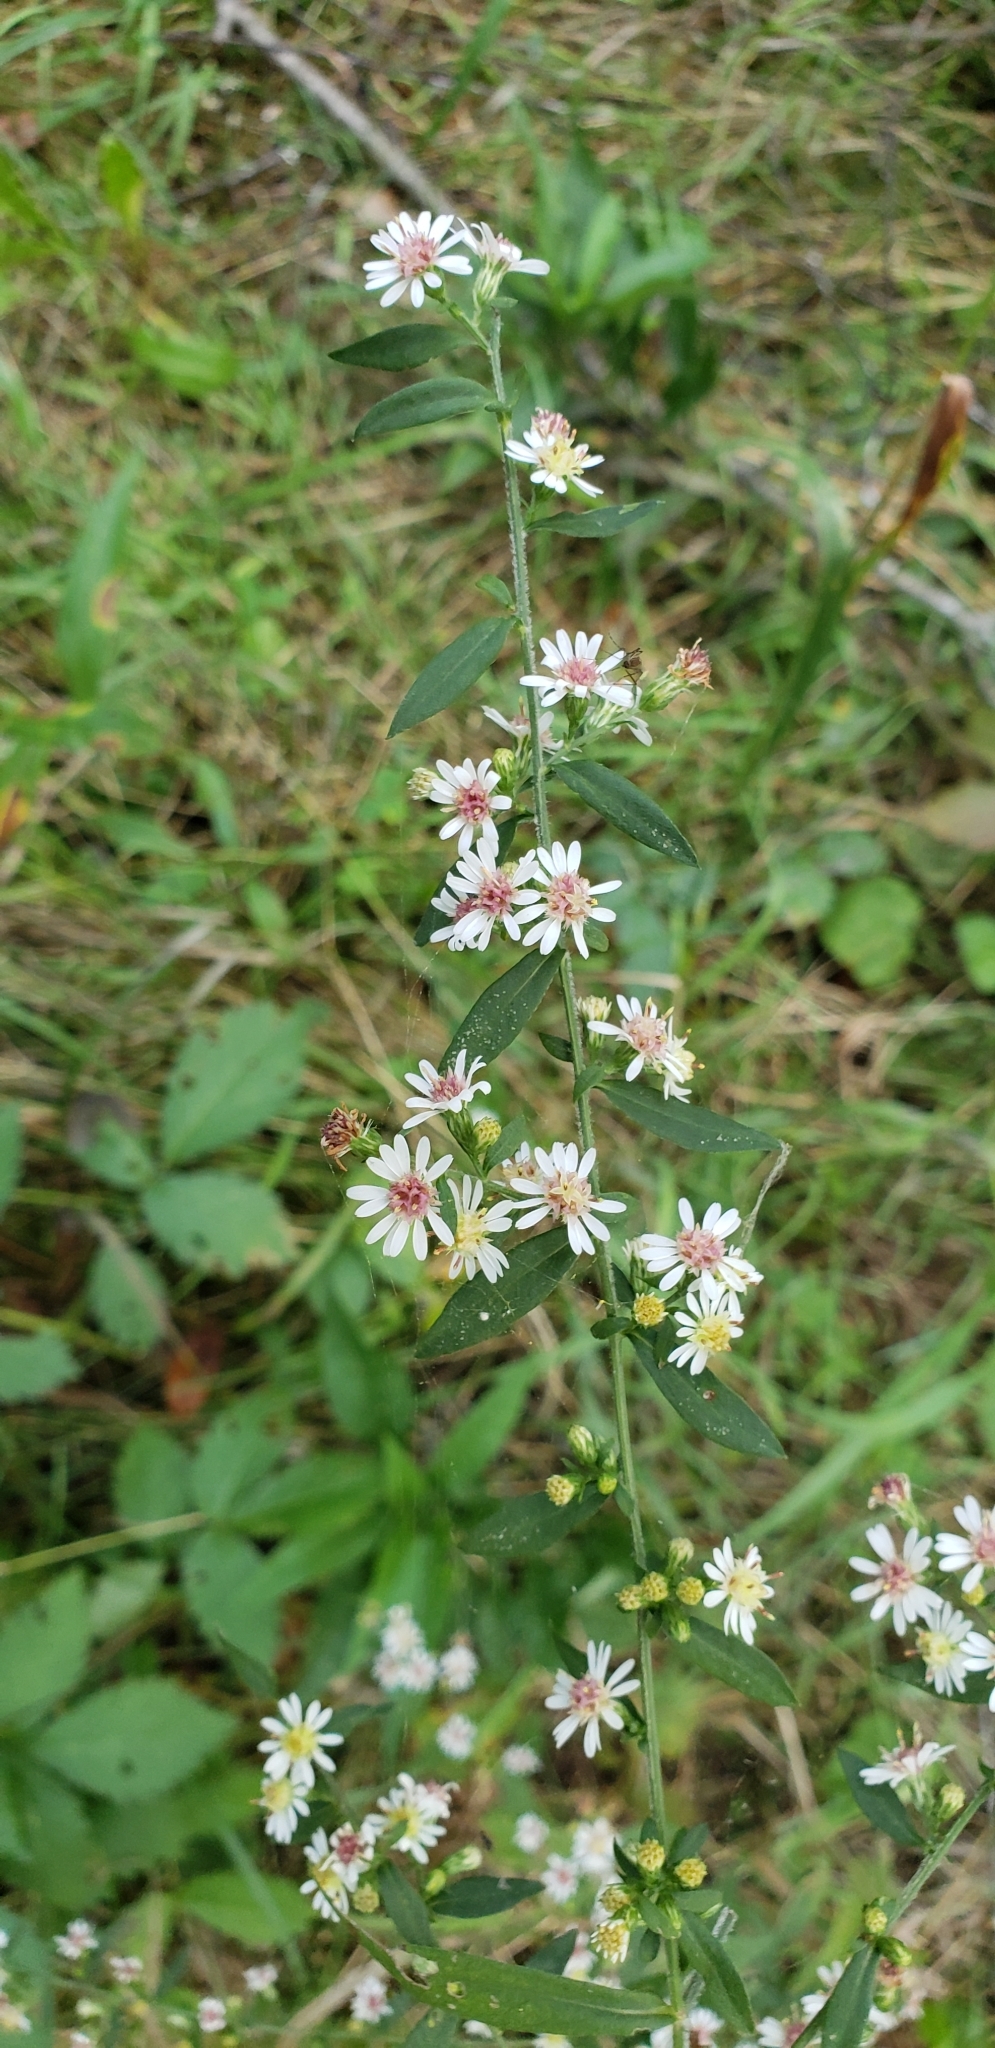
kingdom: Plantae
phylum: Tracheophyta
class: Magnoliopsida
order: Asterales
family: Asteraceae
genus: Symphyotrichum
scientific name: Symphyotrichum lateriflorum
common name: Calico aster
